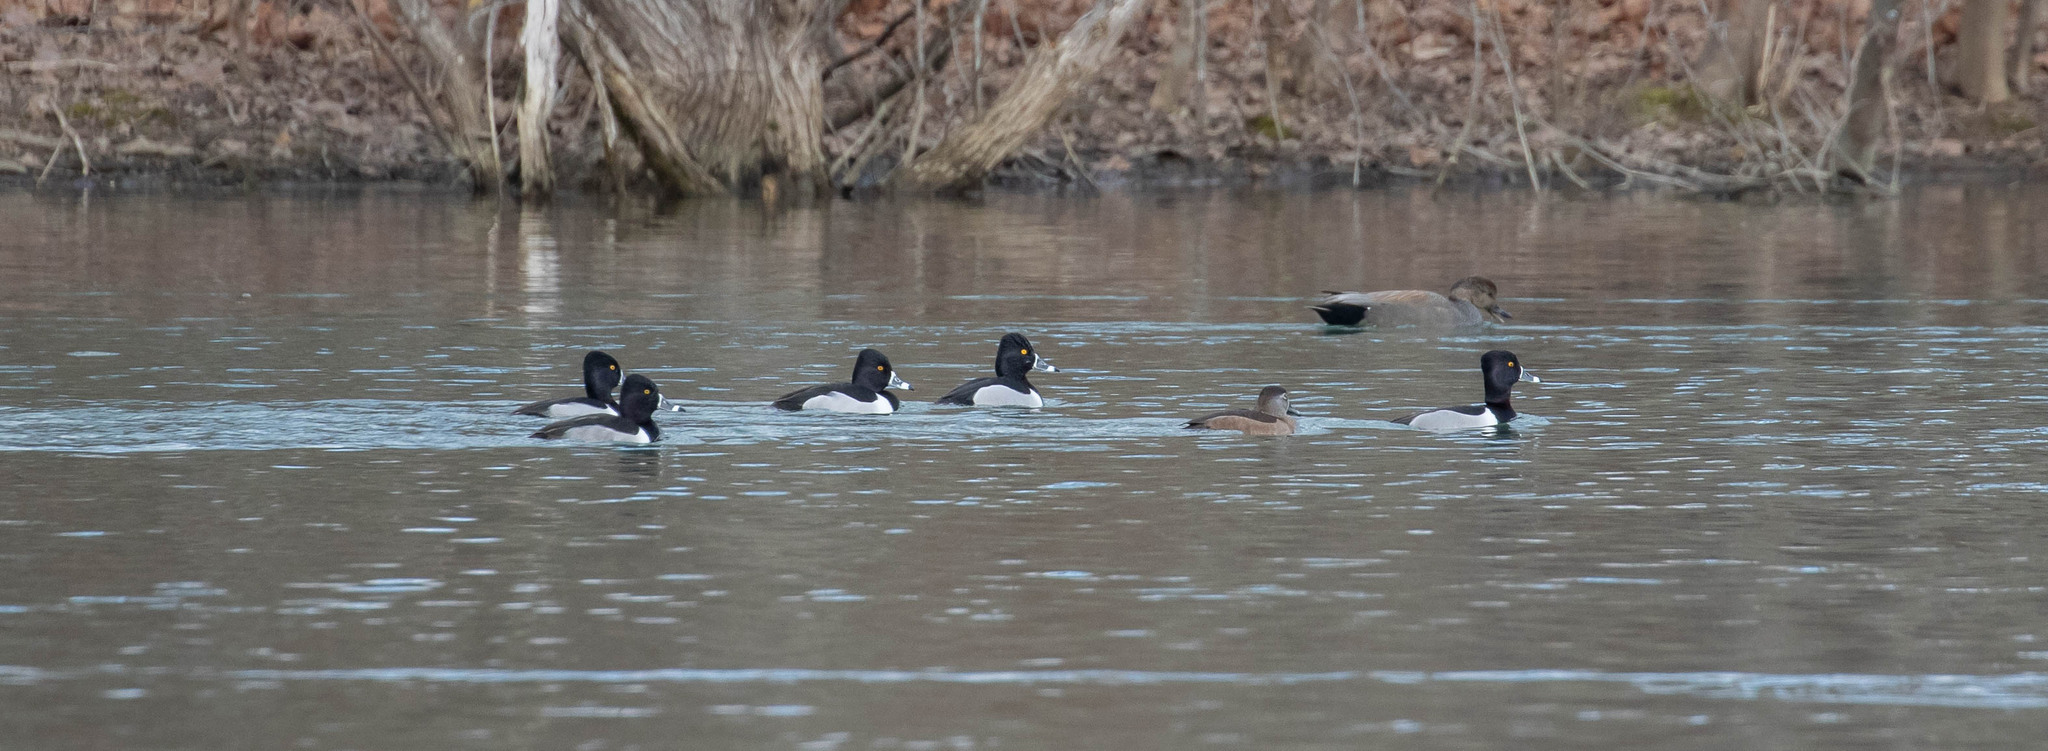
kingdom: Animalia
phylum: Chordata
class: Aves
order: Anseriformes
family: Anatidae
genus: Aythya
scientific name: Aythya collaris
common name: Ring-necked duck
